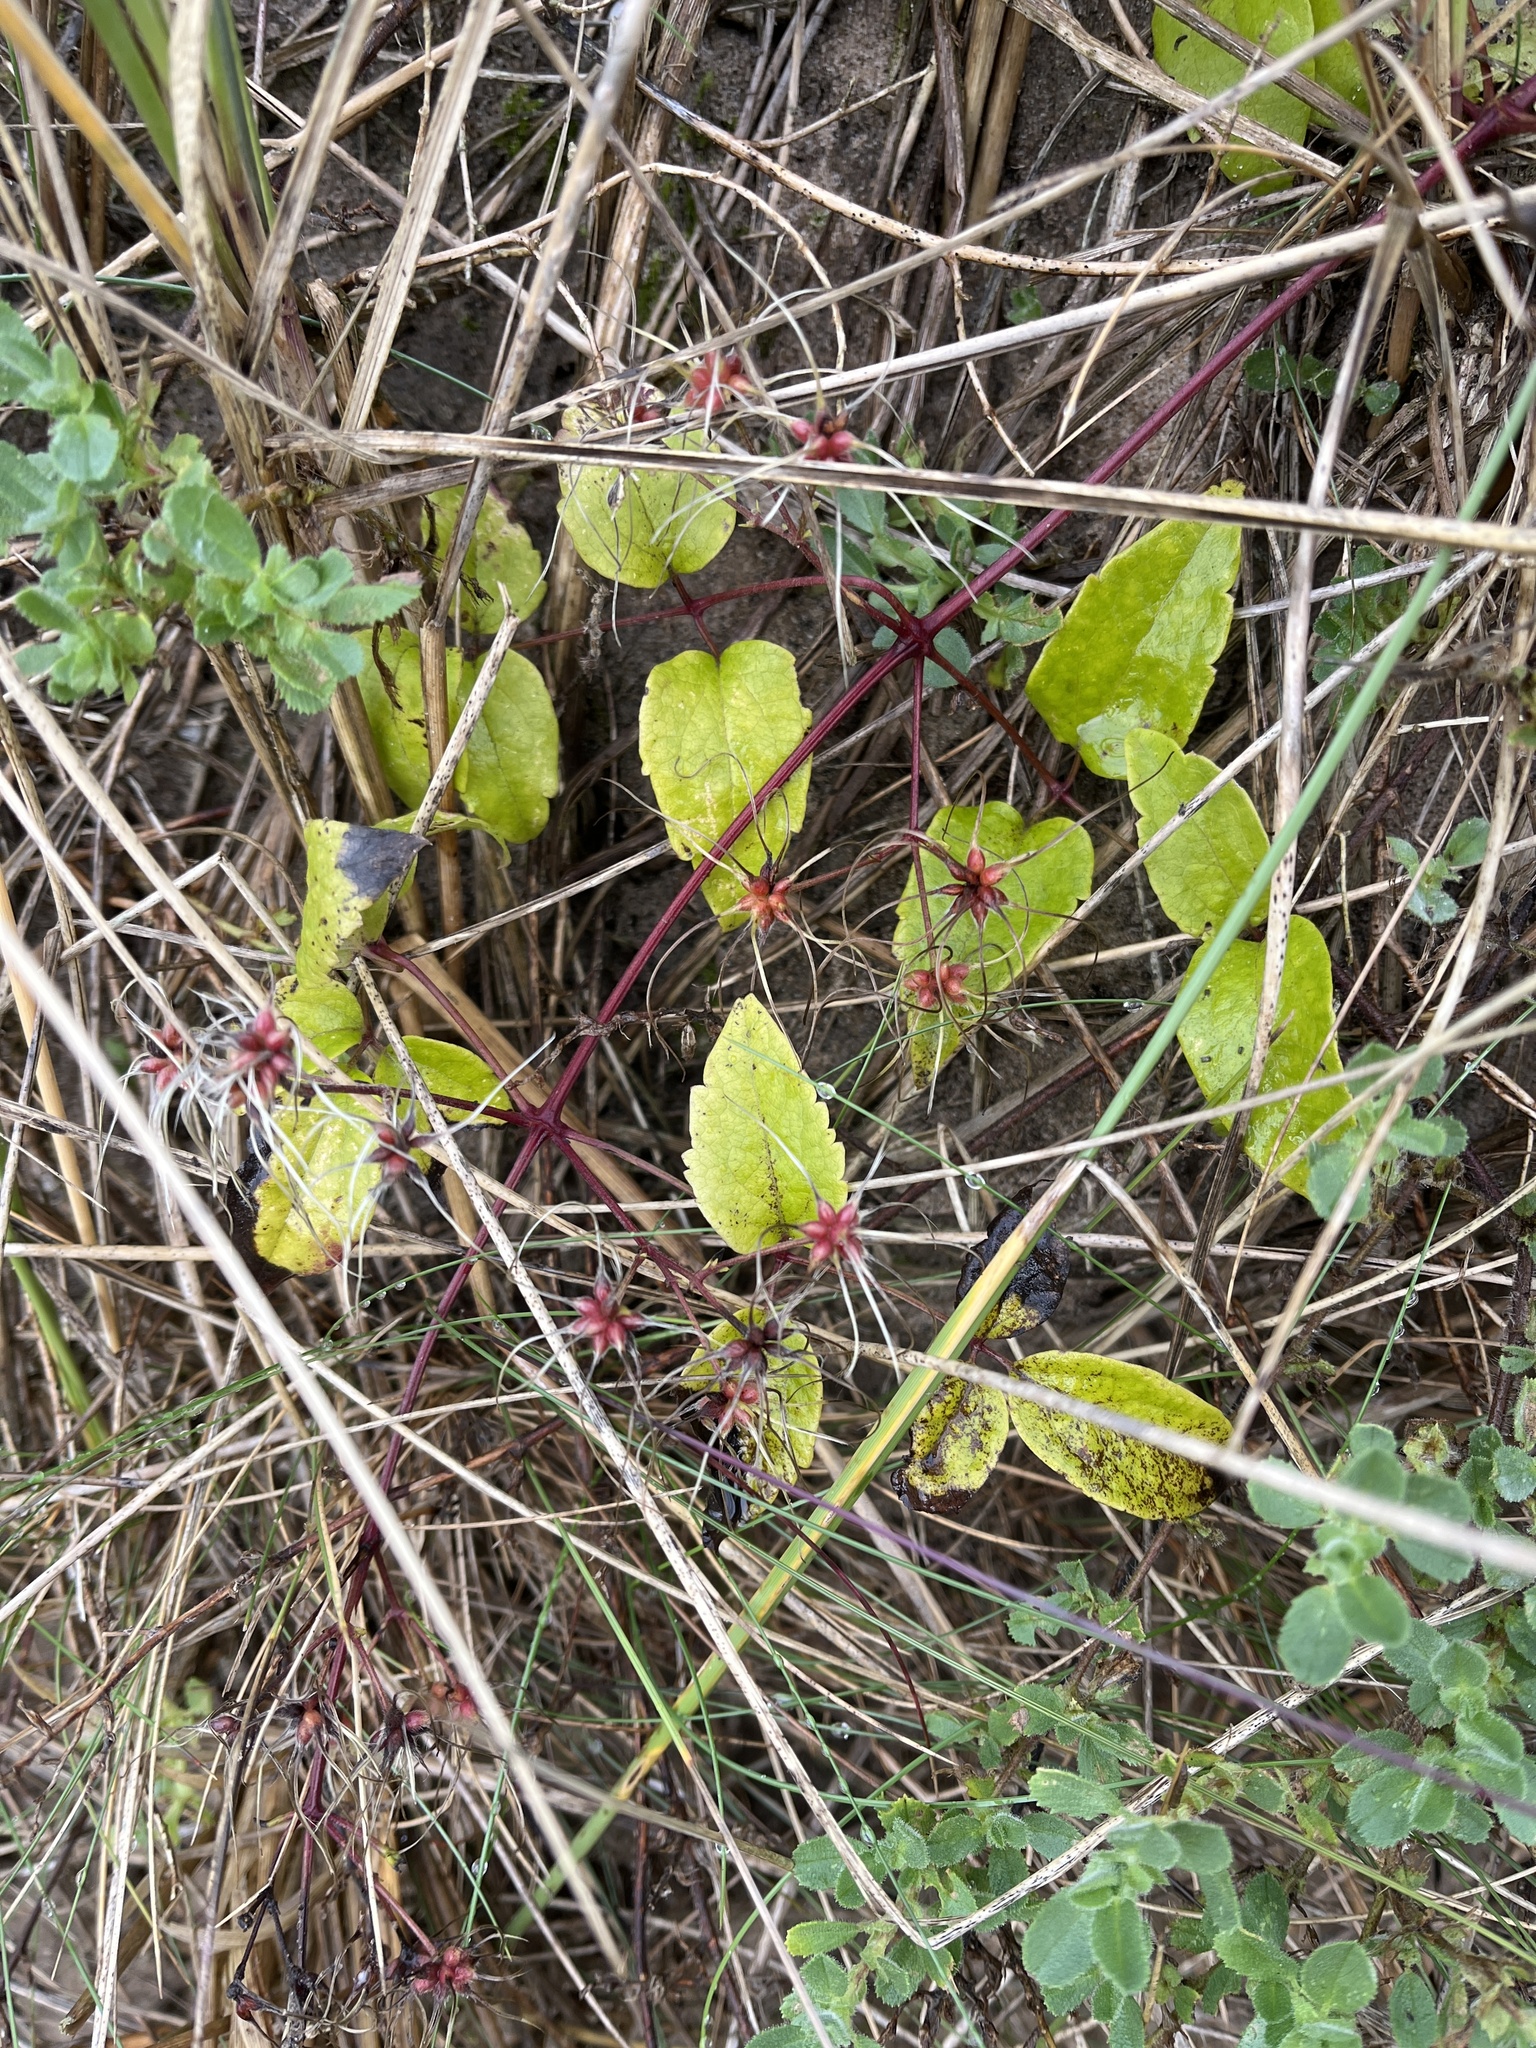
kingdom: Plantae
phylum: Tracheophyta
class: Magnoliopsida
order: Ranunculales
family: Ranunculaceae
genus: Clematis
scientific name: Clematis vitalba
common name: Evergreen clematis
